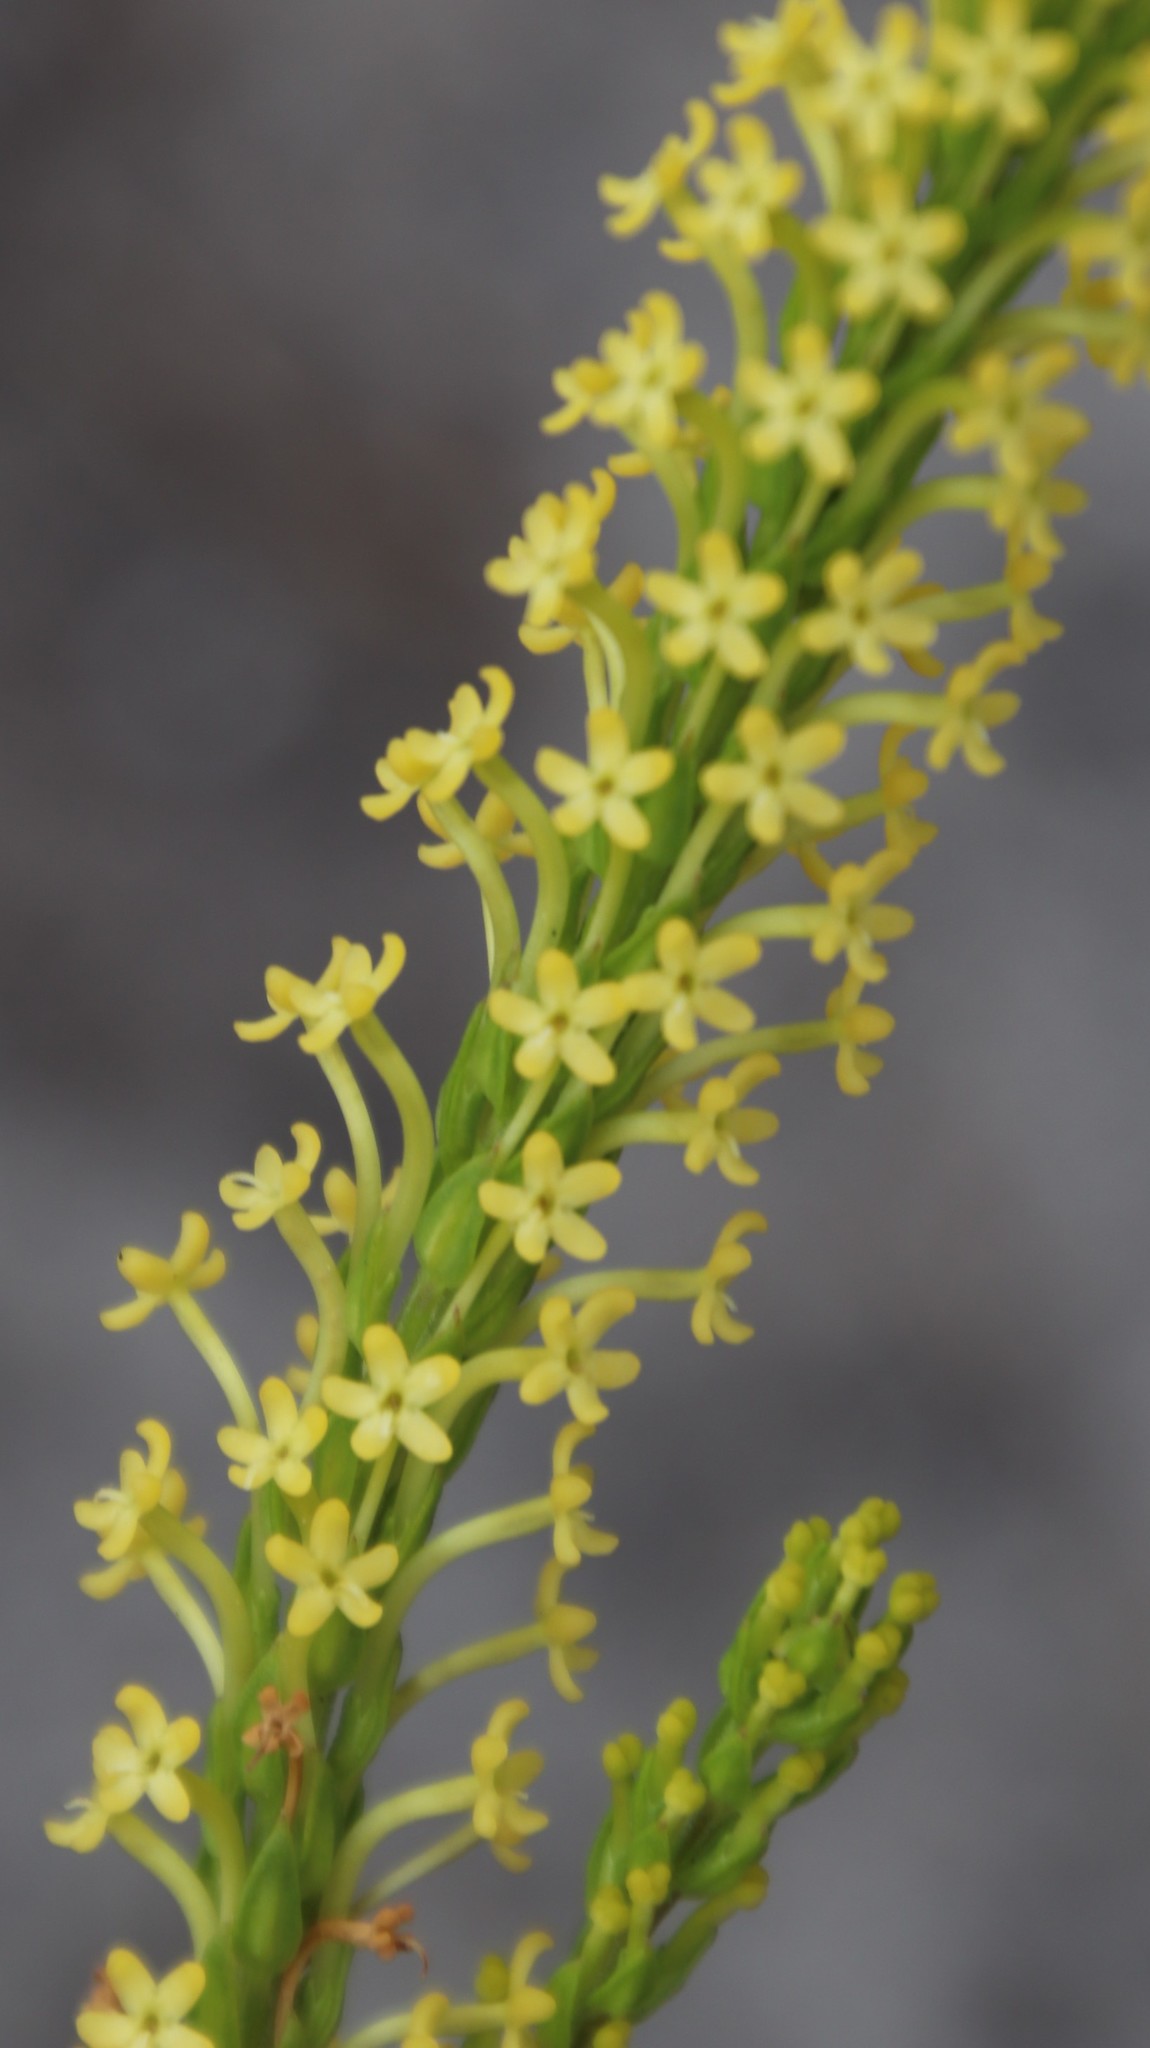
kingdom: Plantae
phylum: Tracheophyta
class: Magnoliopsida
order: Lamiales
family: Scrophulariaceae
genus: Microdon
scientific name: Microdon dubius
